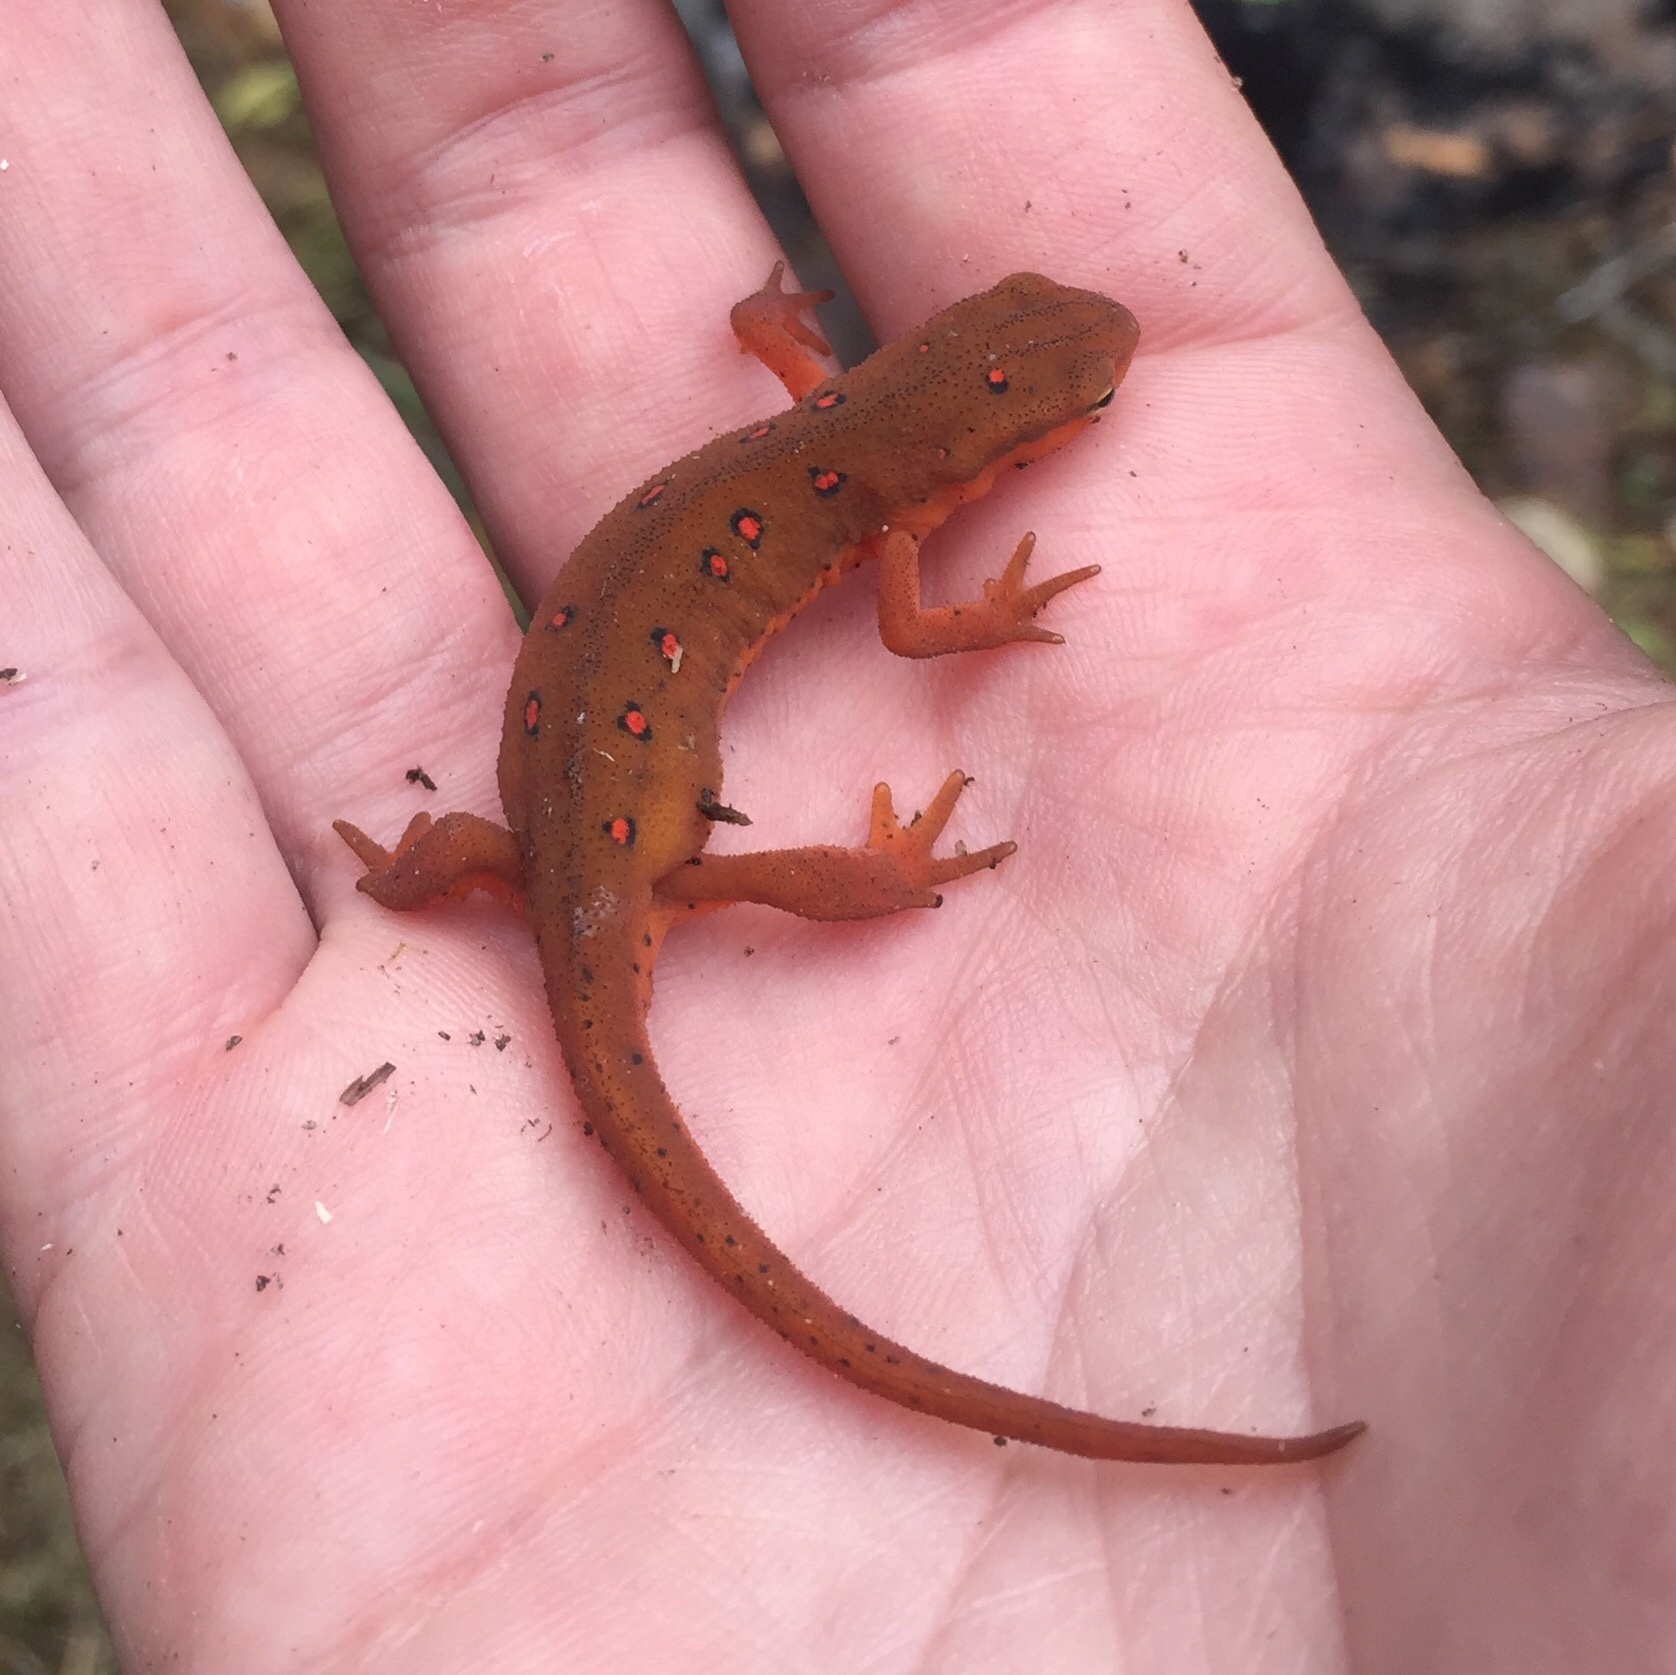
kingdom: Animalia
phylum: Chordata
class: Amphibia
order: Caudata
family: Salamandridae
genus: Notophthalmus
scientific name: Notophthalmus viridescens
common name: Eastern newt
